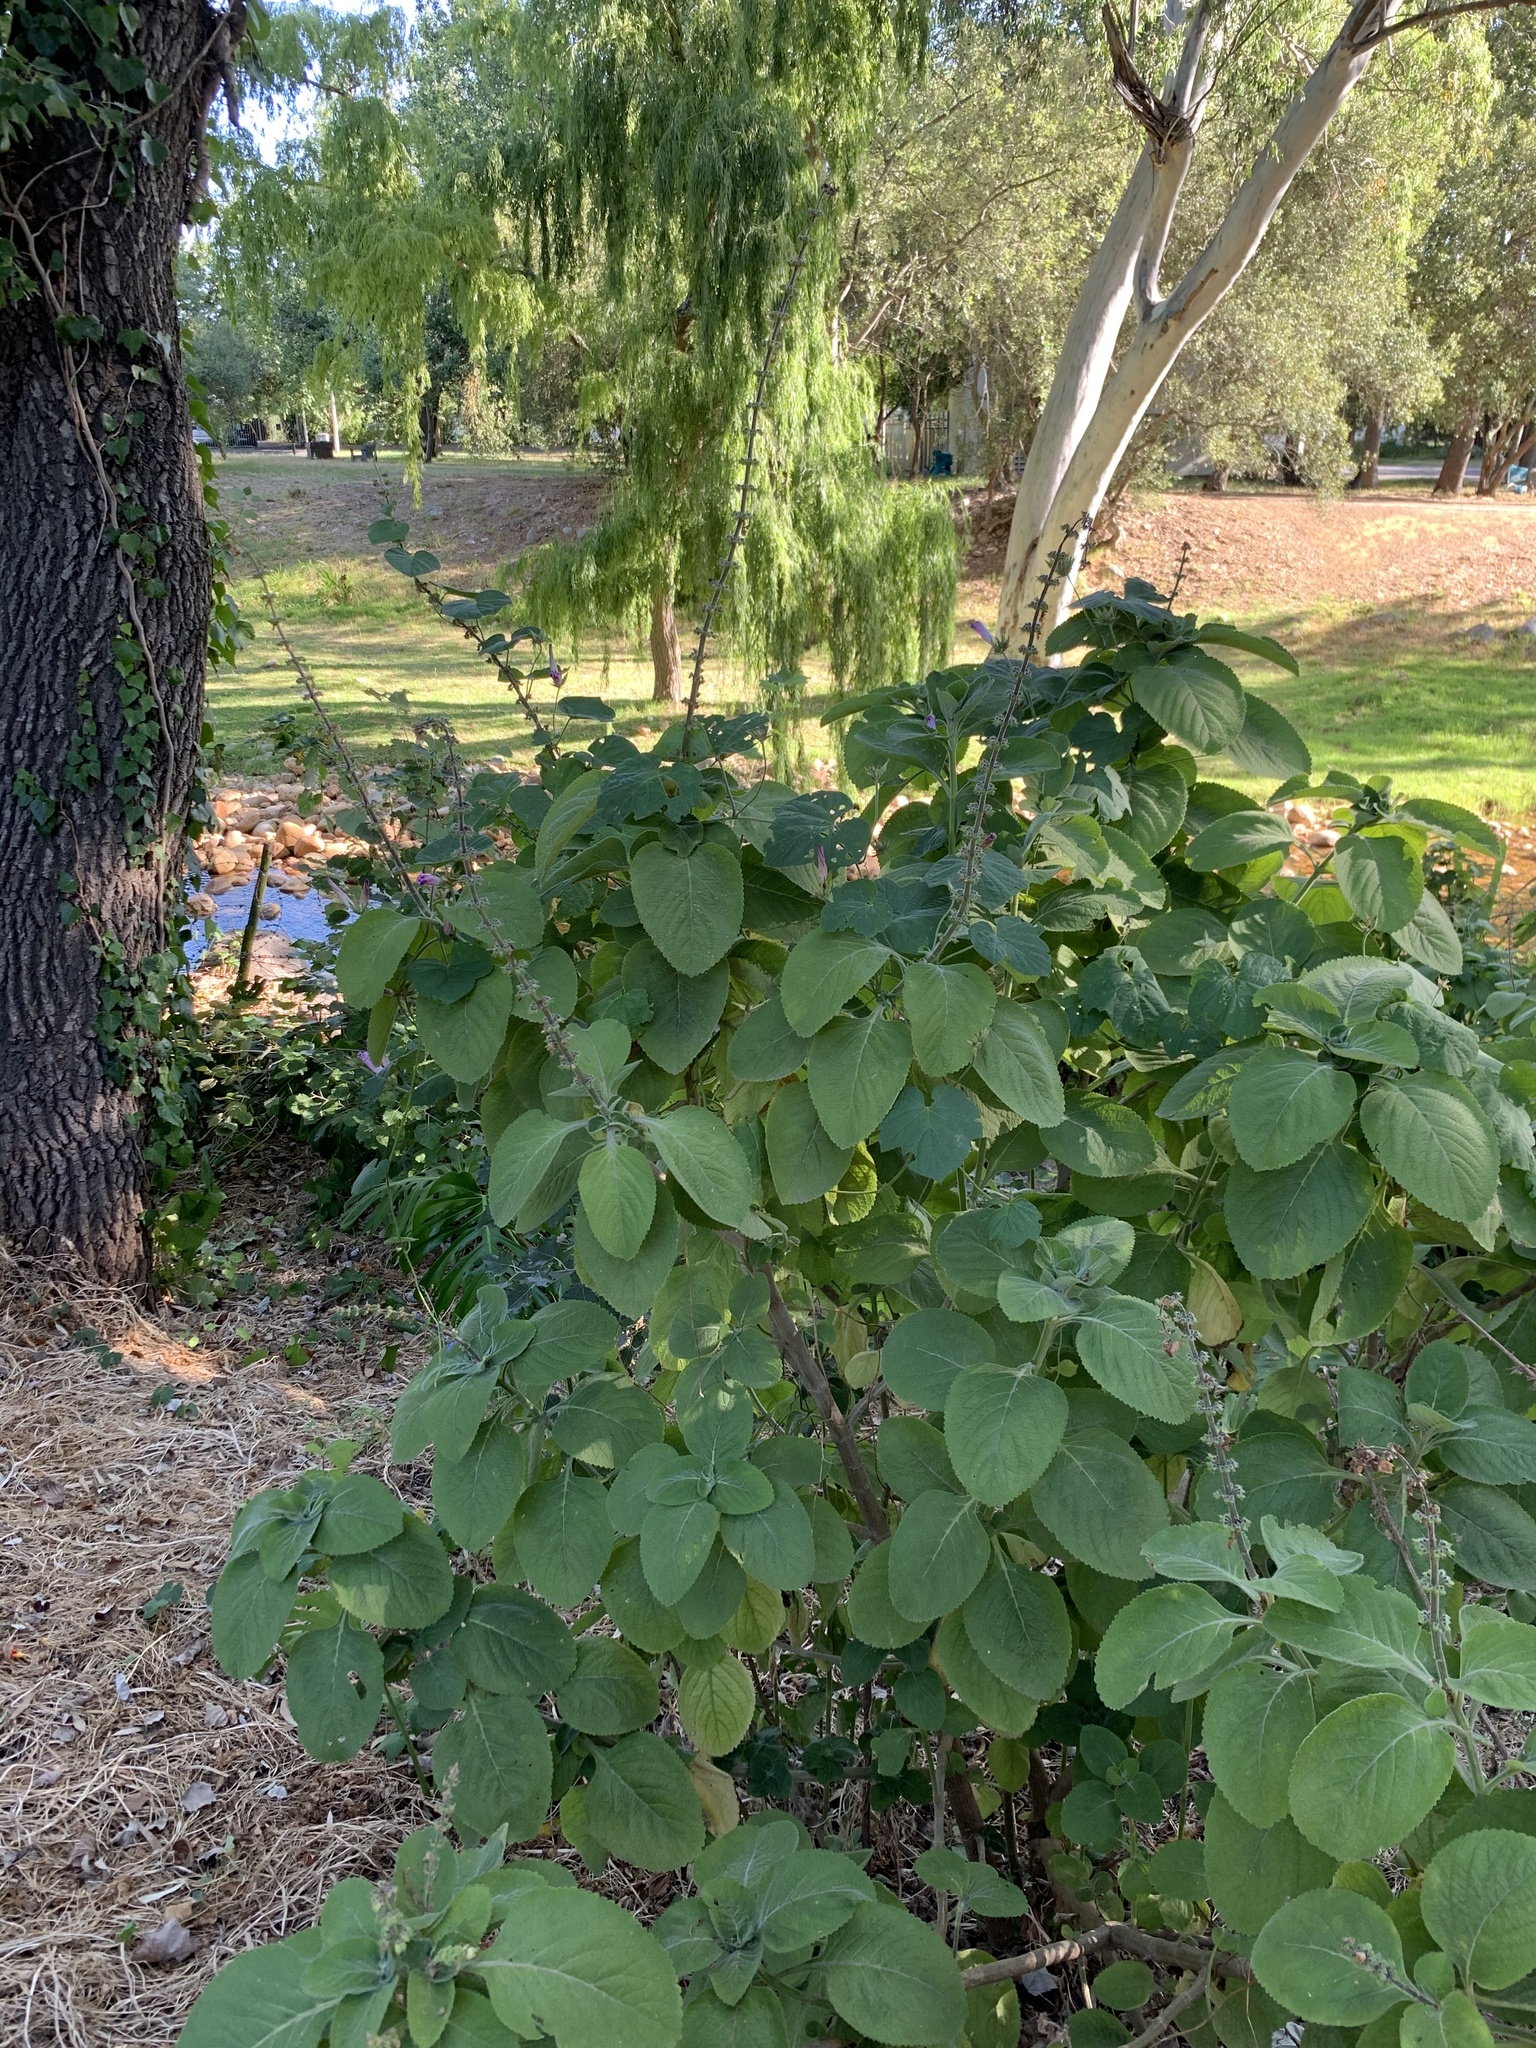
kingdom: Plantae
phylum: Tracheophyta
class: Magnoliopsida
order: Lamiales
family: Lamiaceae
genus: Coleus
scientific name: Coleus barbatus
